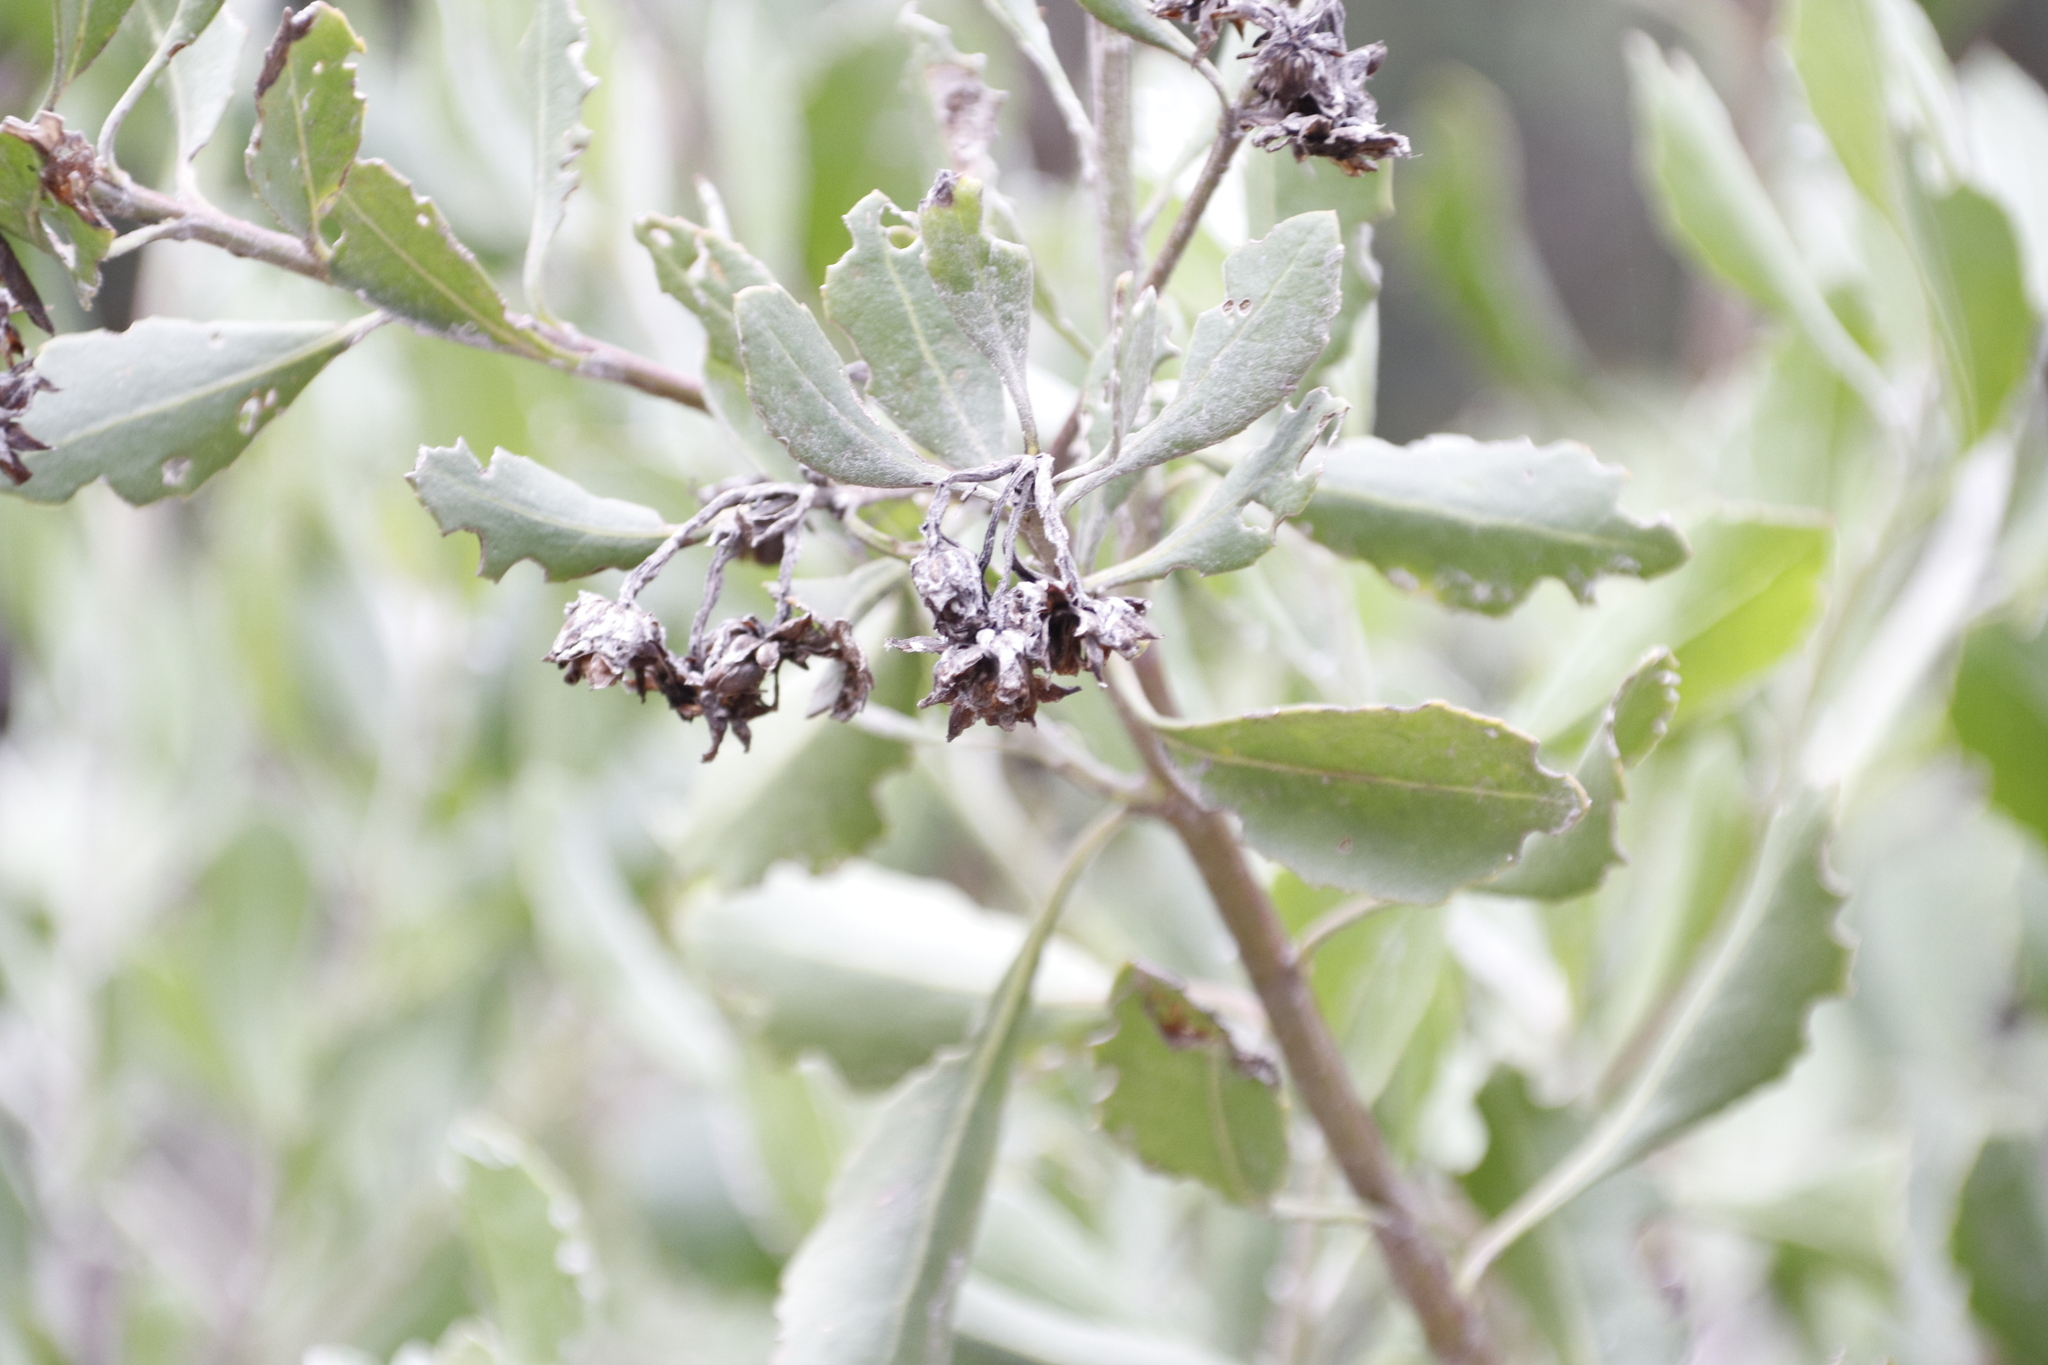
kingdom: Plantae
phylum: Tracheophyta
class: Magnoliopsida
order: Asterales
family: Asteraceae
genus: Osteospermum
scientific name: Osteospermum moniliferum
